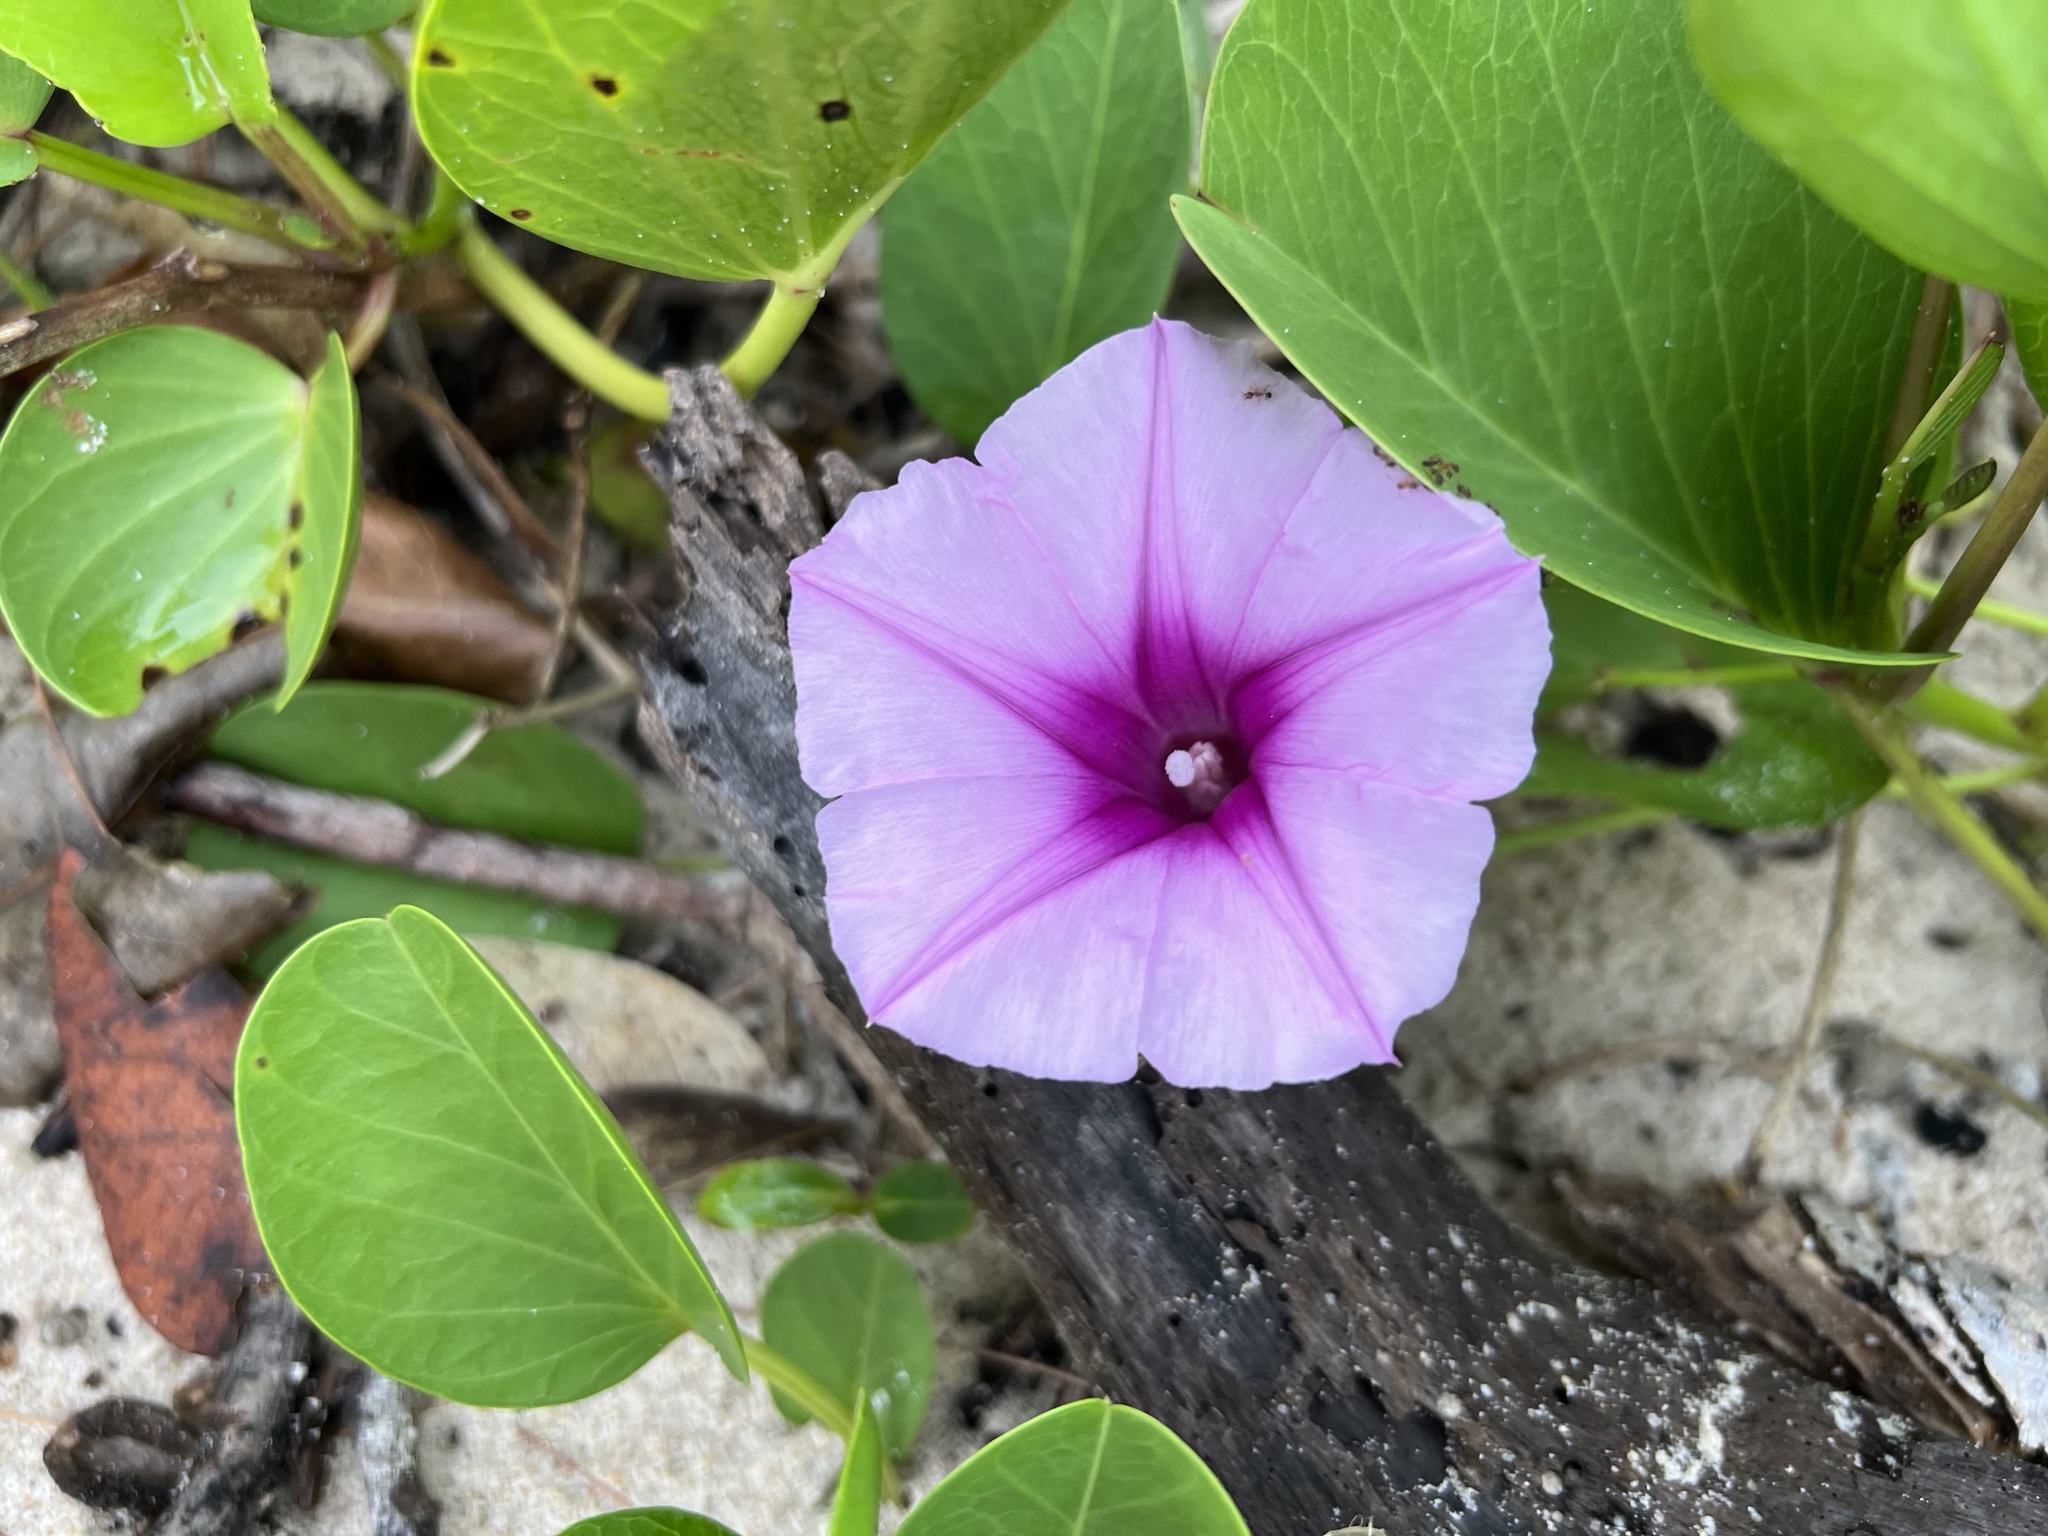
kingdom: Plantae
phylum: Tracheophyta
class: Magnoliopsida
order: Solanales
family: Convolvulaceae
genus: Ipomoea
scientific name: Ipomoea pes-caprae
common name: Beach morning glory
